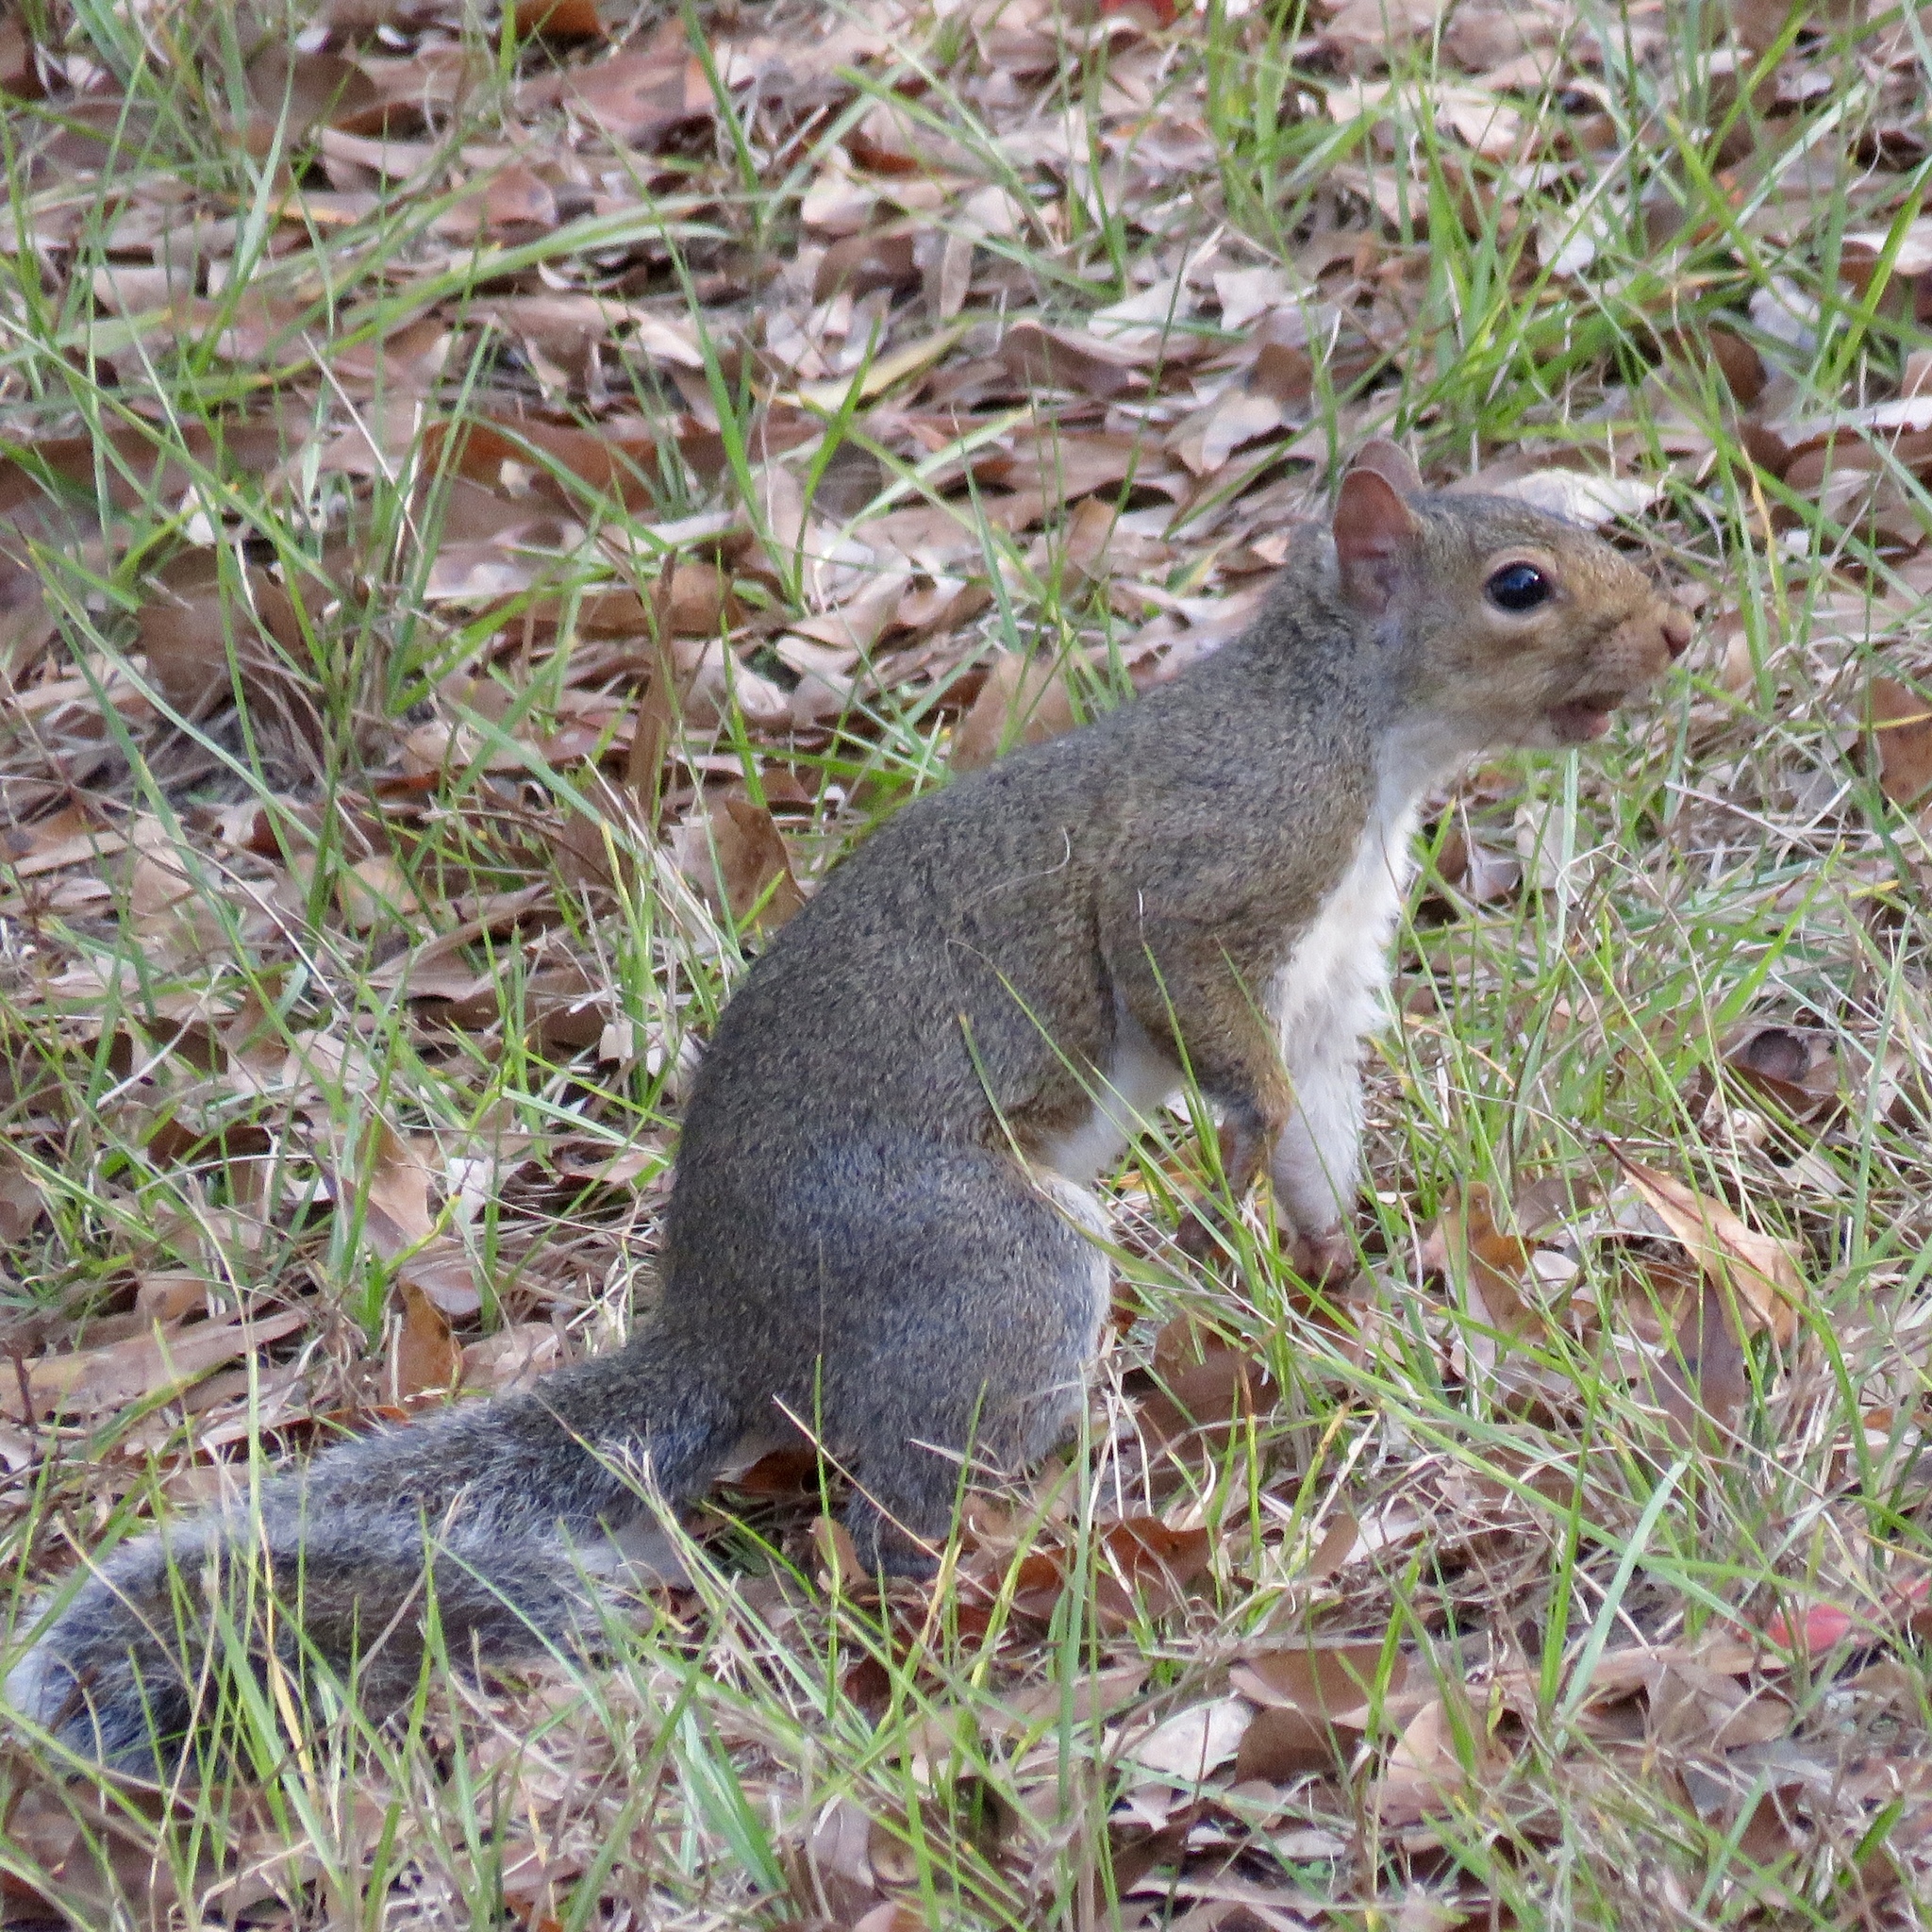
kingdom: Animalia
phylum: Chordata
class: Mammalia
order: Rodentia
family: Sciuridae
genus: Sciurus
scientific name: Sciurus carolinensis
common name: Eastern gray squirrel
